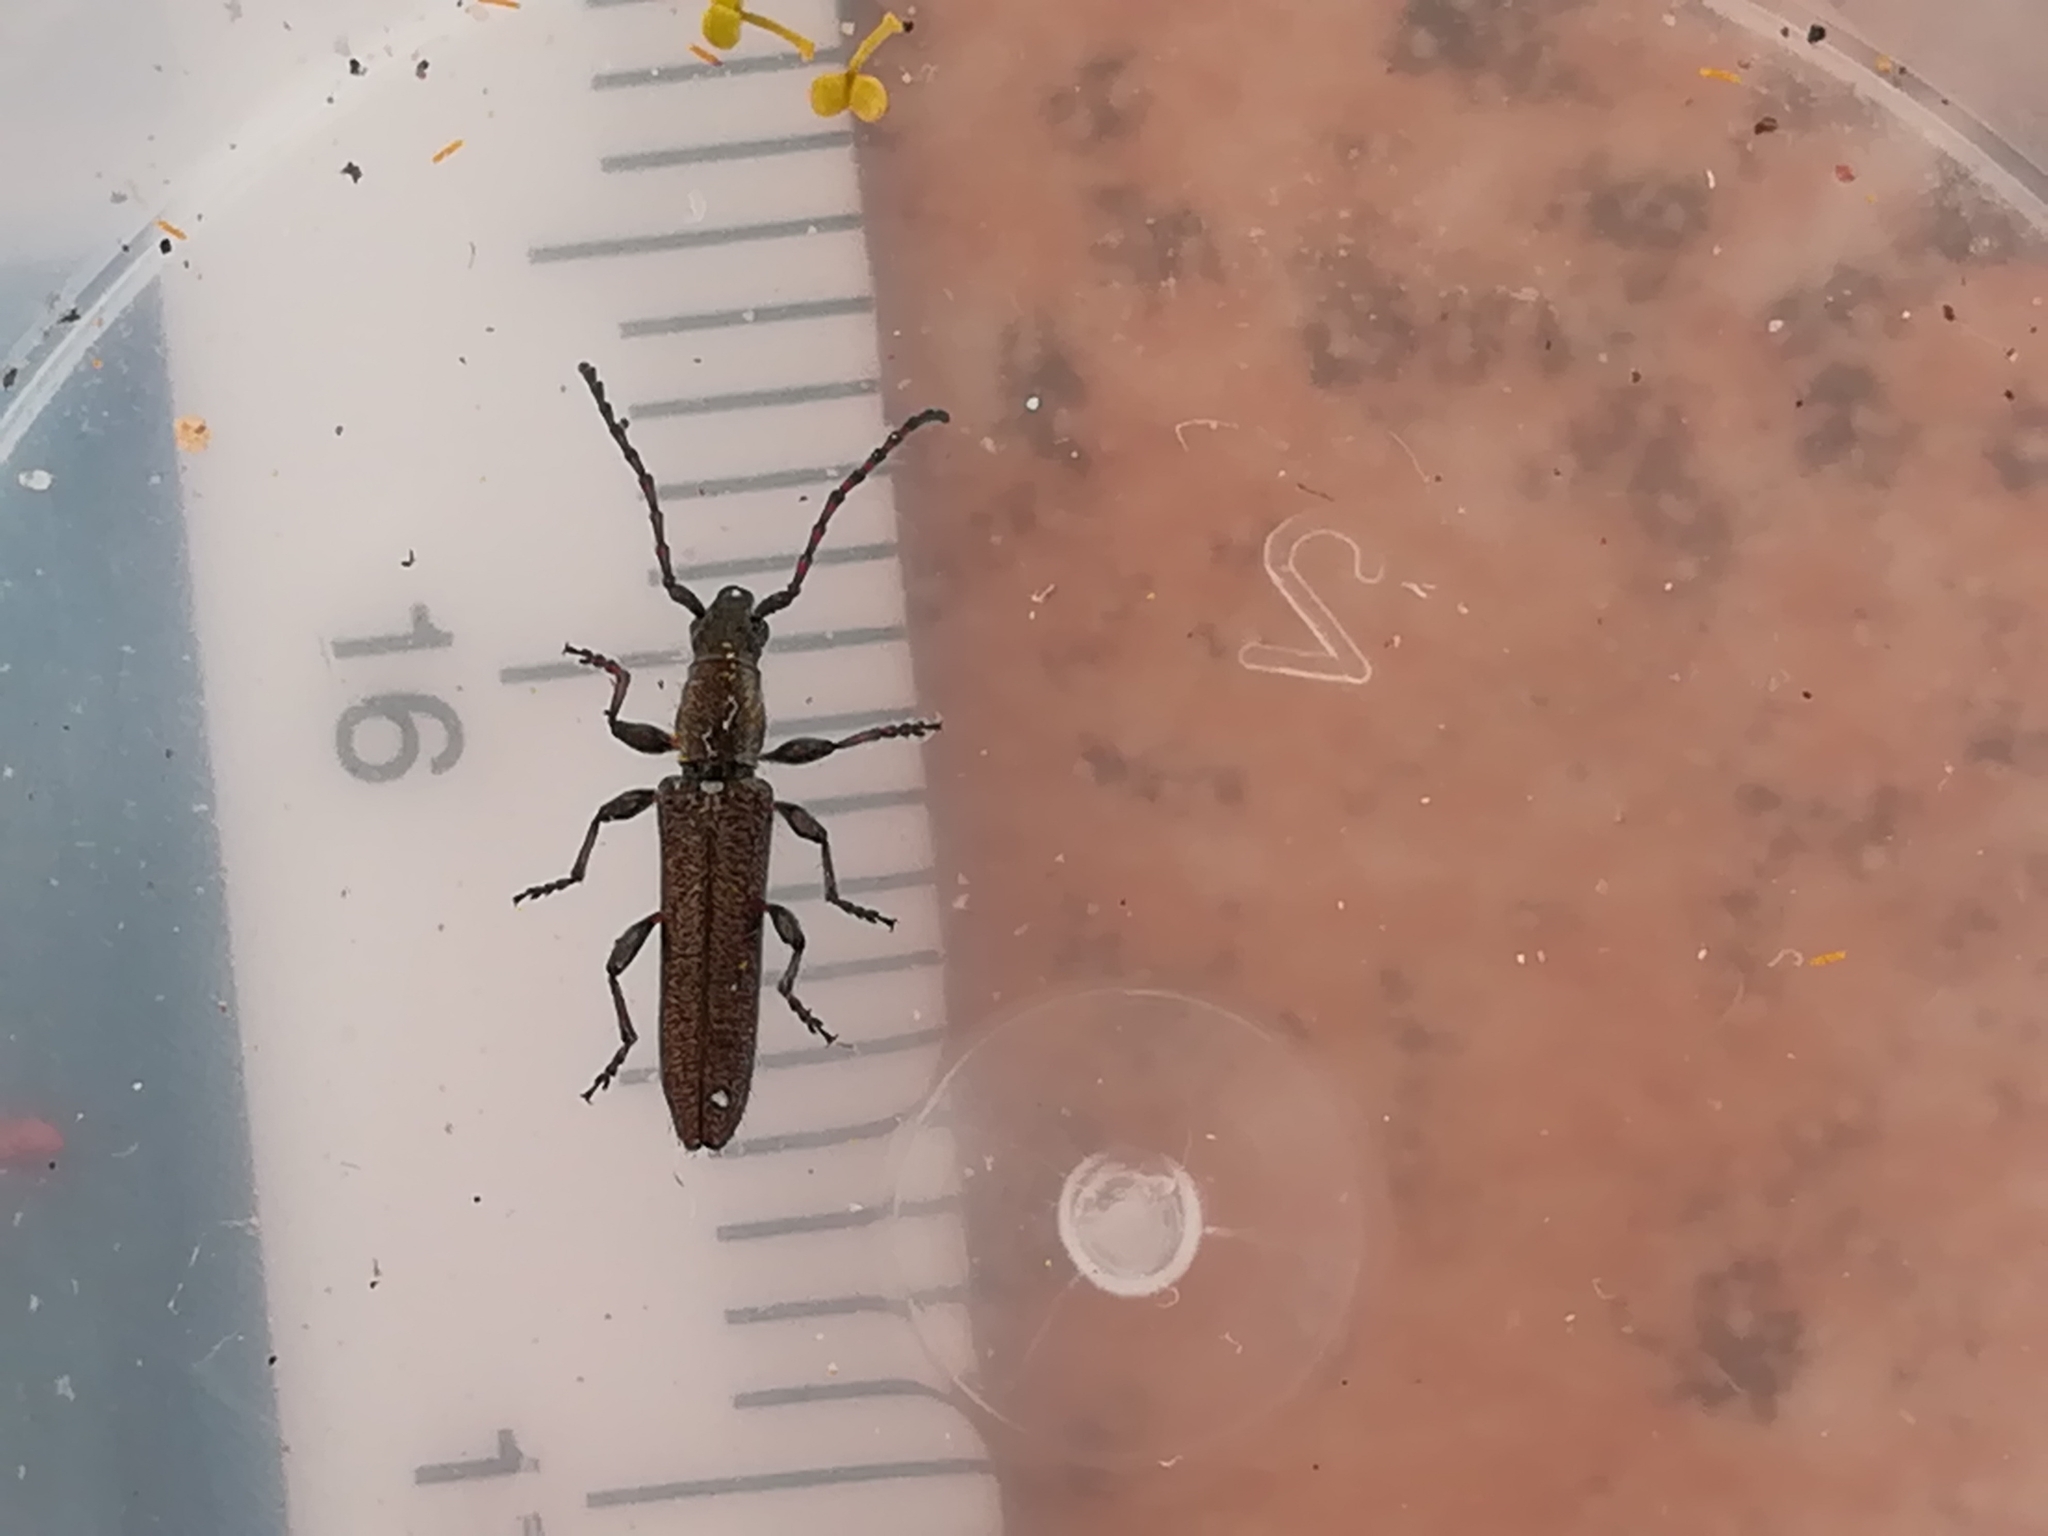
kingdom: Animalia
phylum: Arthropoda
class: Insecta
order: Coleoptera
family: Cerambycidae
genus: Deilus
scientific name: Deilus fugax
